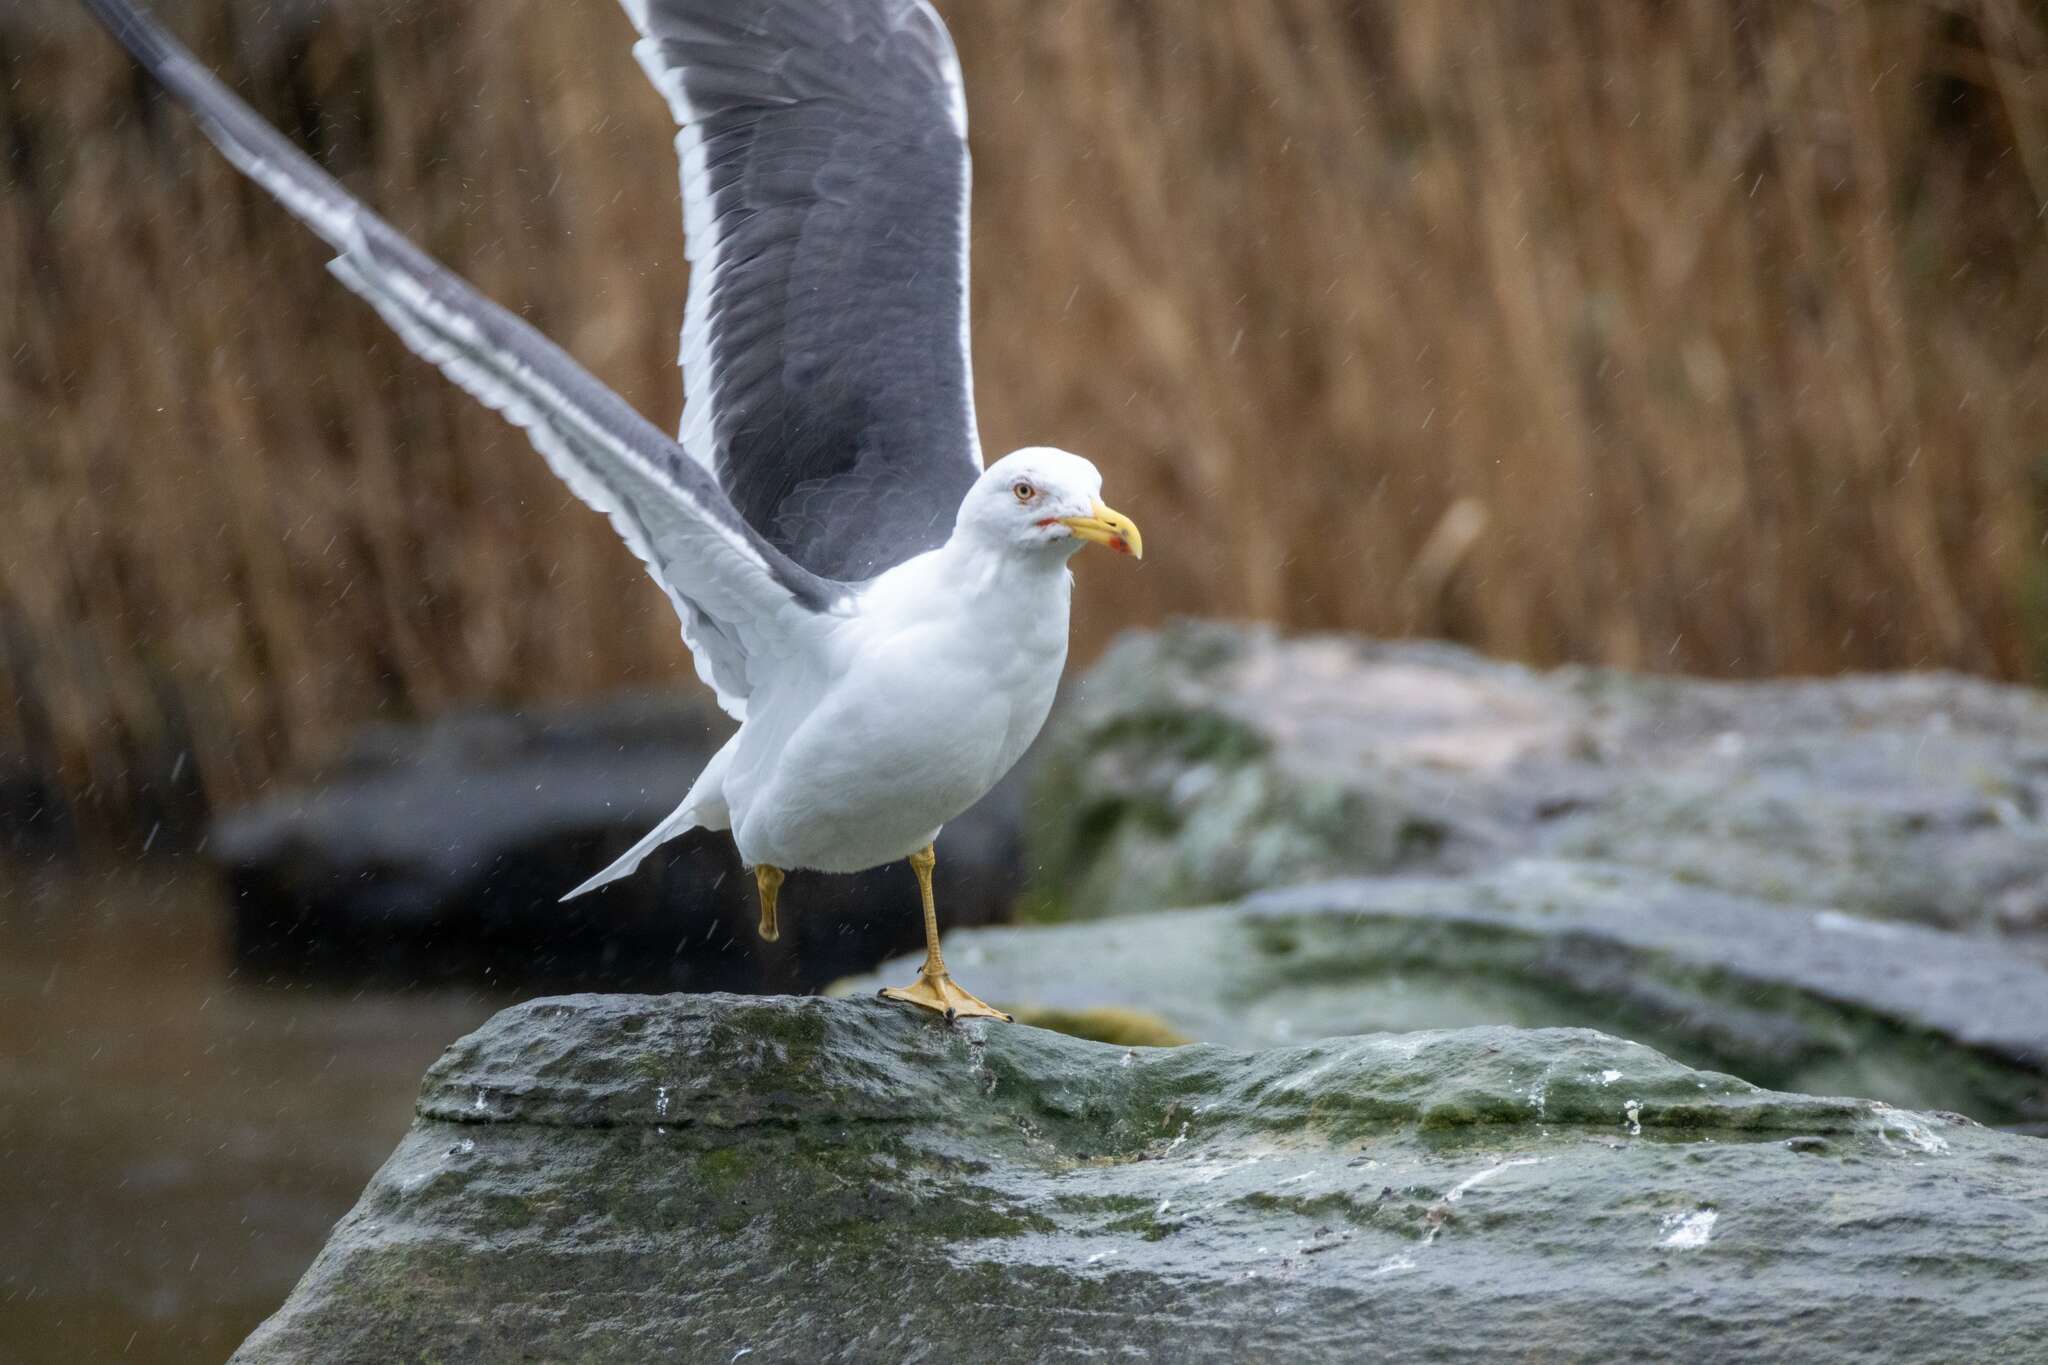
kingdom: Animalia
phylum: Chordata
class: Aves
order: Charadriiformes
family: Laridae
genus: Larus
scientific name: Larus fuscus
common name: Lesser black-backed gull
